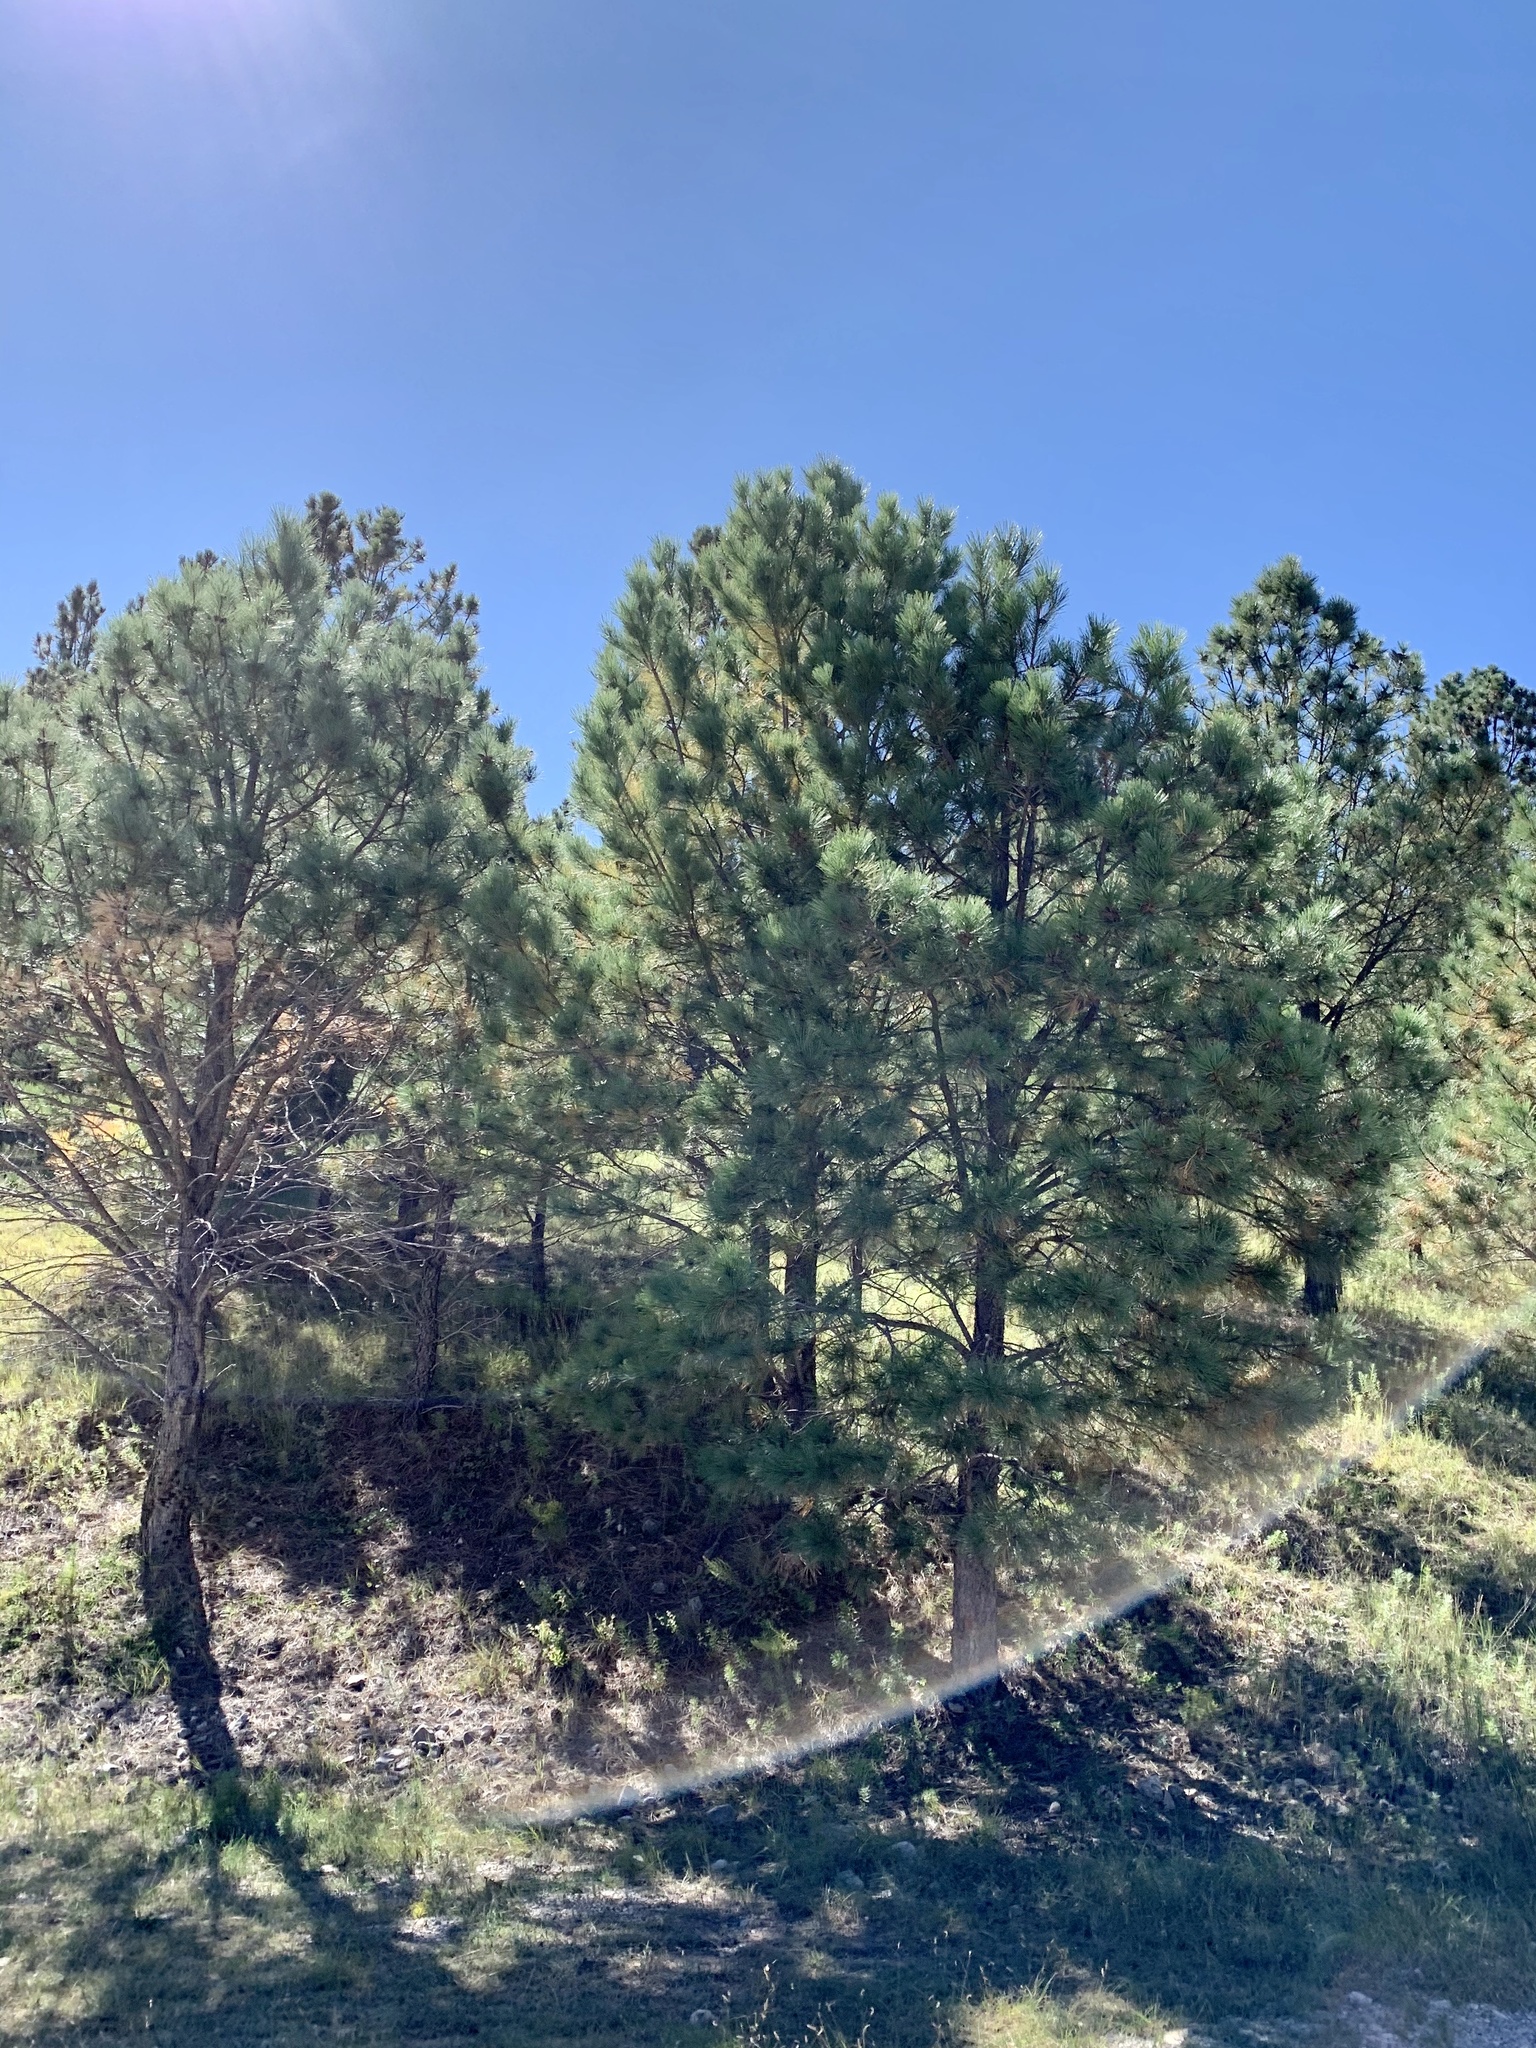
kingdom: Plantae
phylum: Tracheophyta
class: Pinopsida
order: Pinales
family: Pinaceae
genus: Pinus
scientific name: Pinus ponderosa
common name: Western yellow-pine
